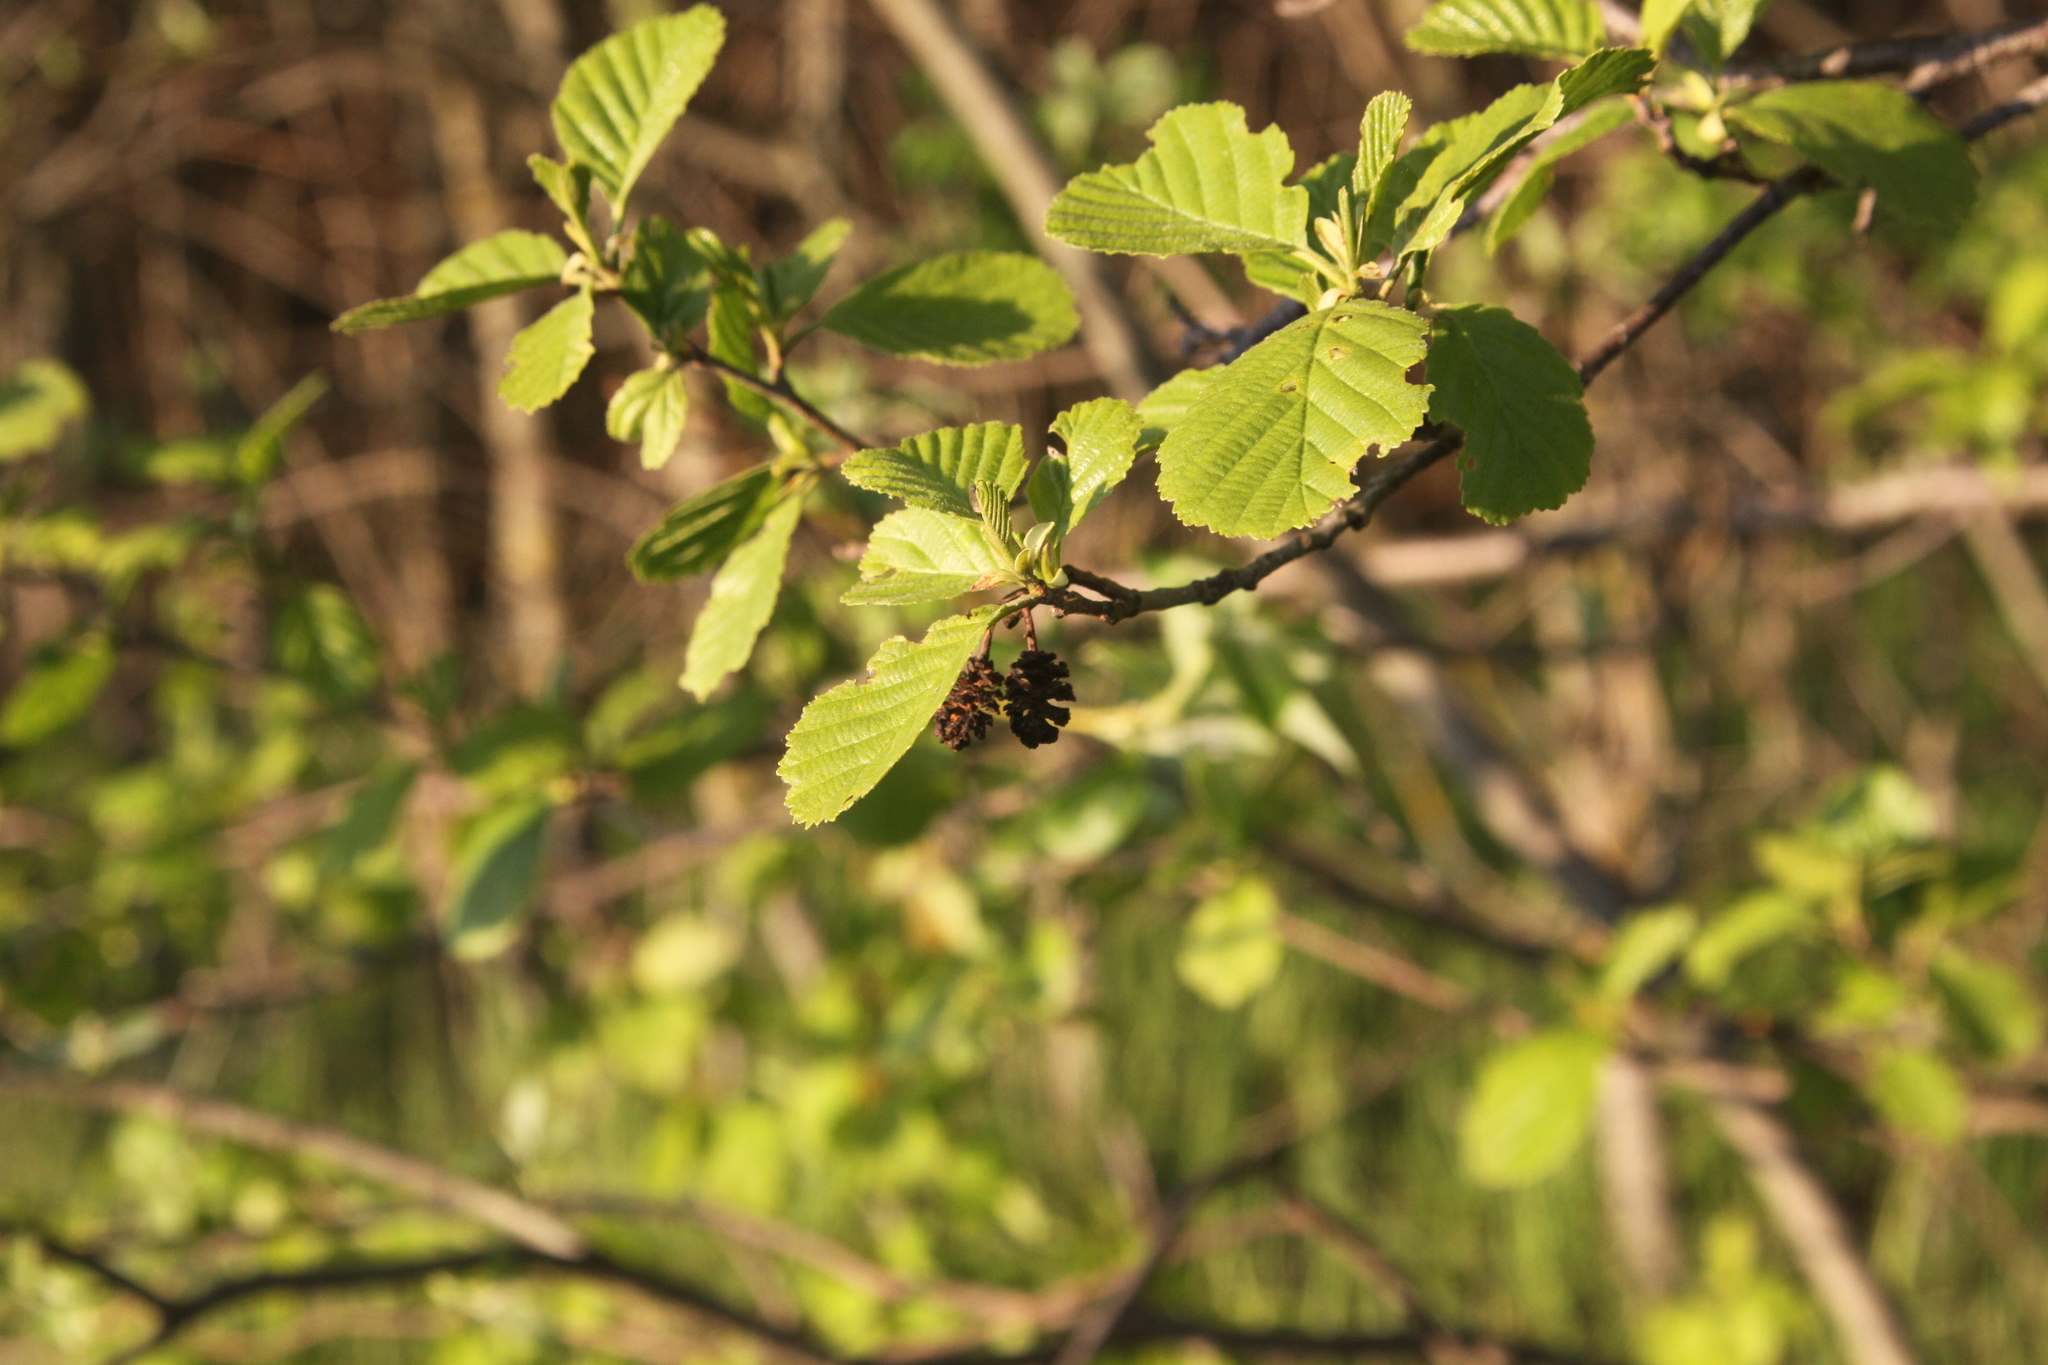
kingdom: Plantae
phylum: Tracheophyta
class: Magnoliopsida
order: Fagales
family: Betulaceae
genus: Alnus
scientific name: Alnus glutinosa
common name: Black alder
